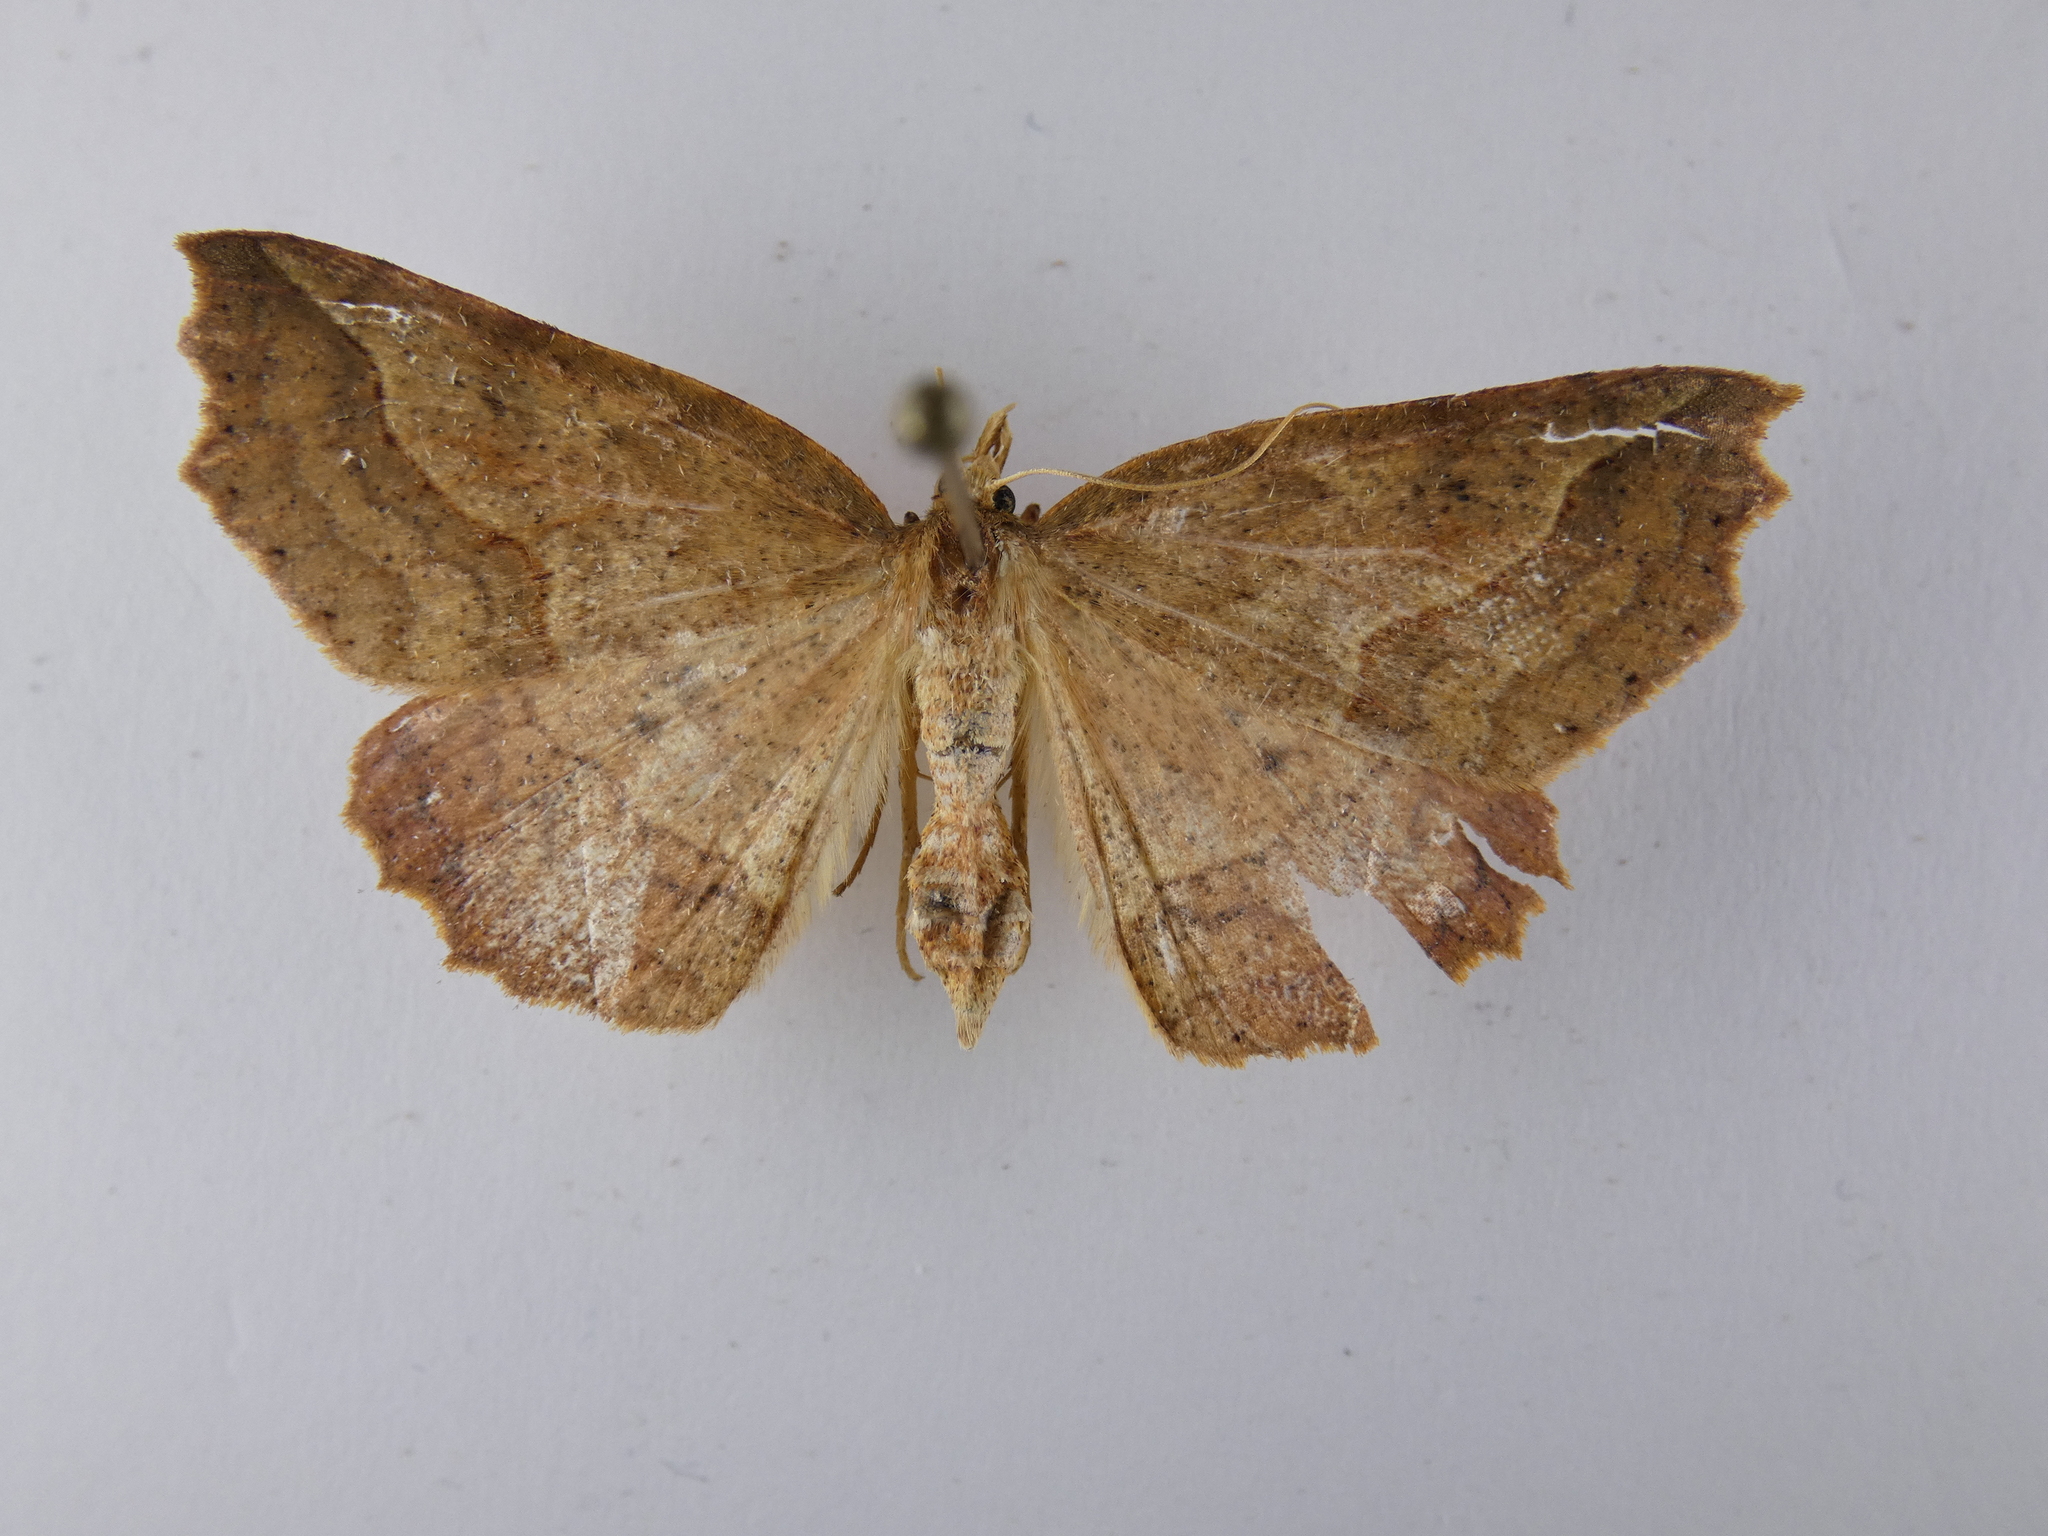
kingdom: Animalia
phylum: Arthropoda
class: Insecta
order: Lepidoptera
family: Geometridae
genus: Ischalis
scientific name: Ischalis variabilis
